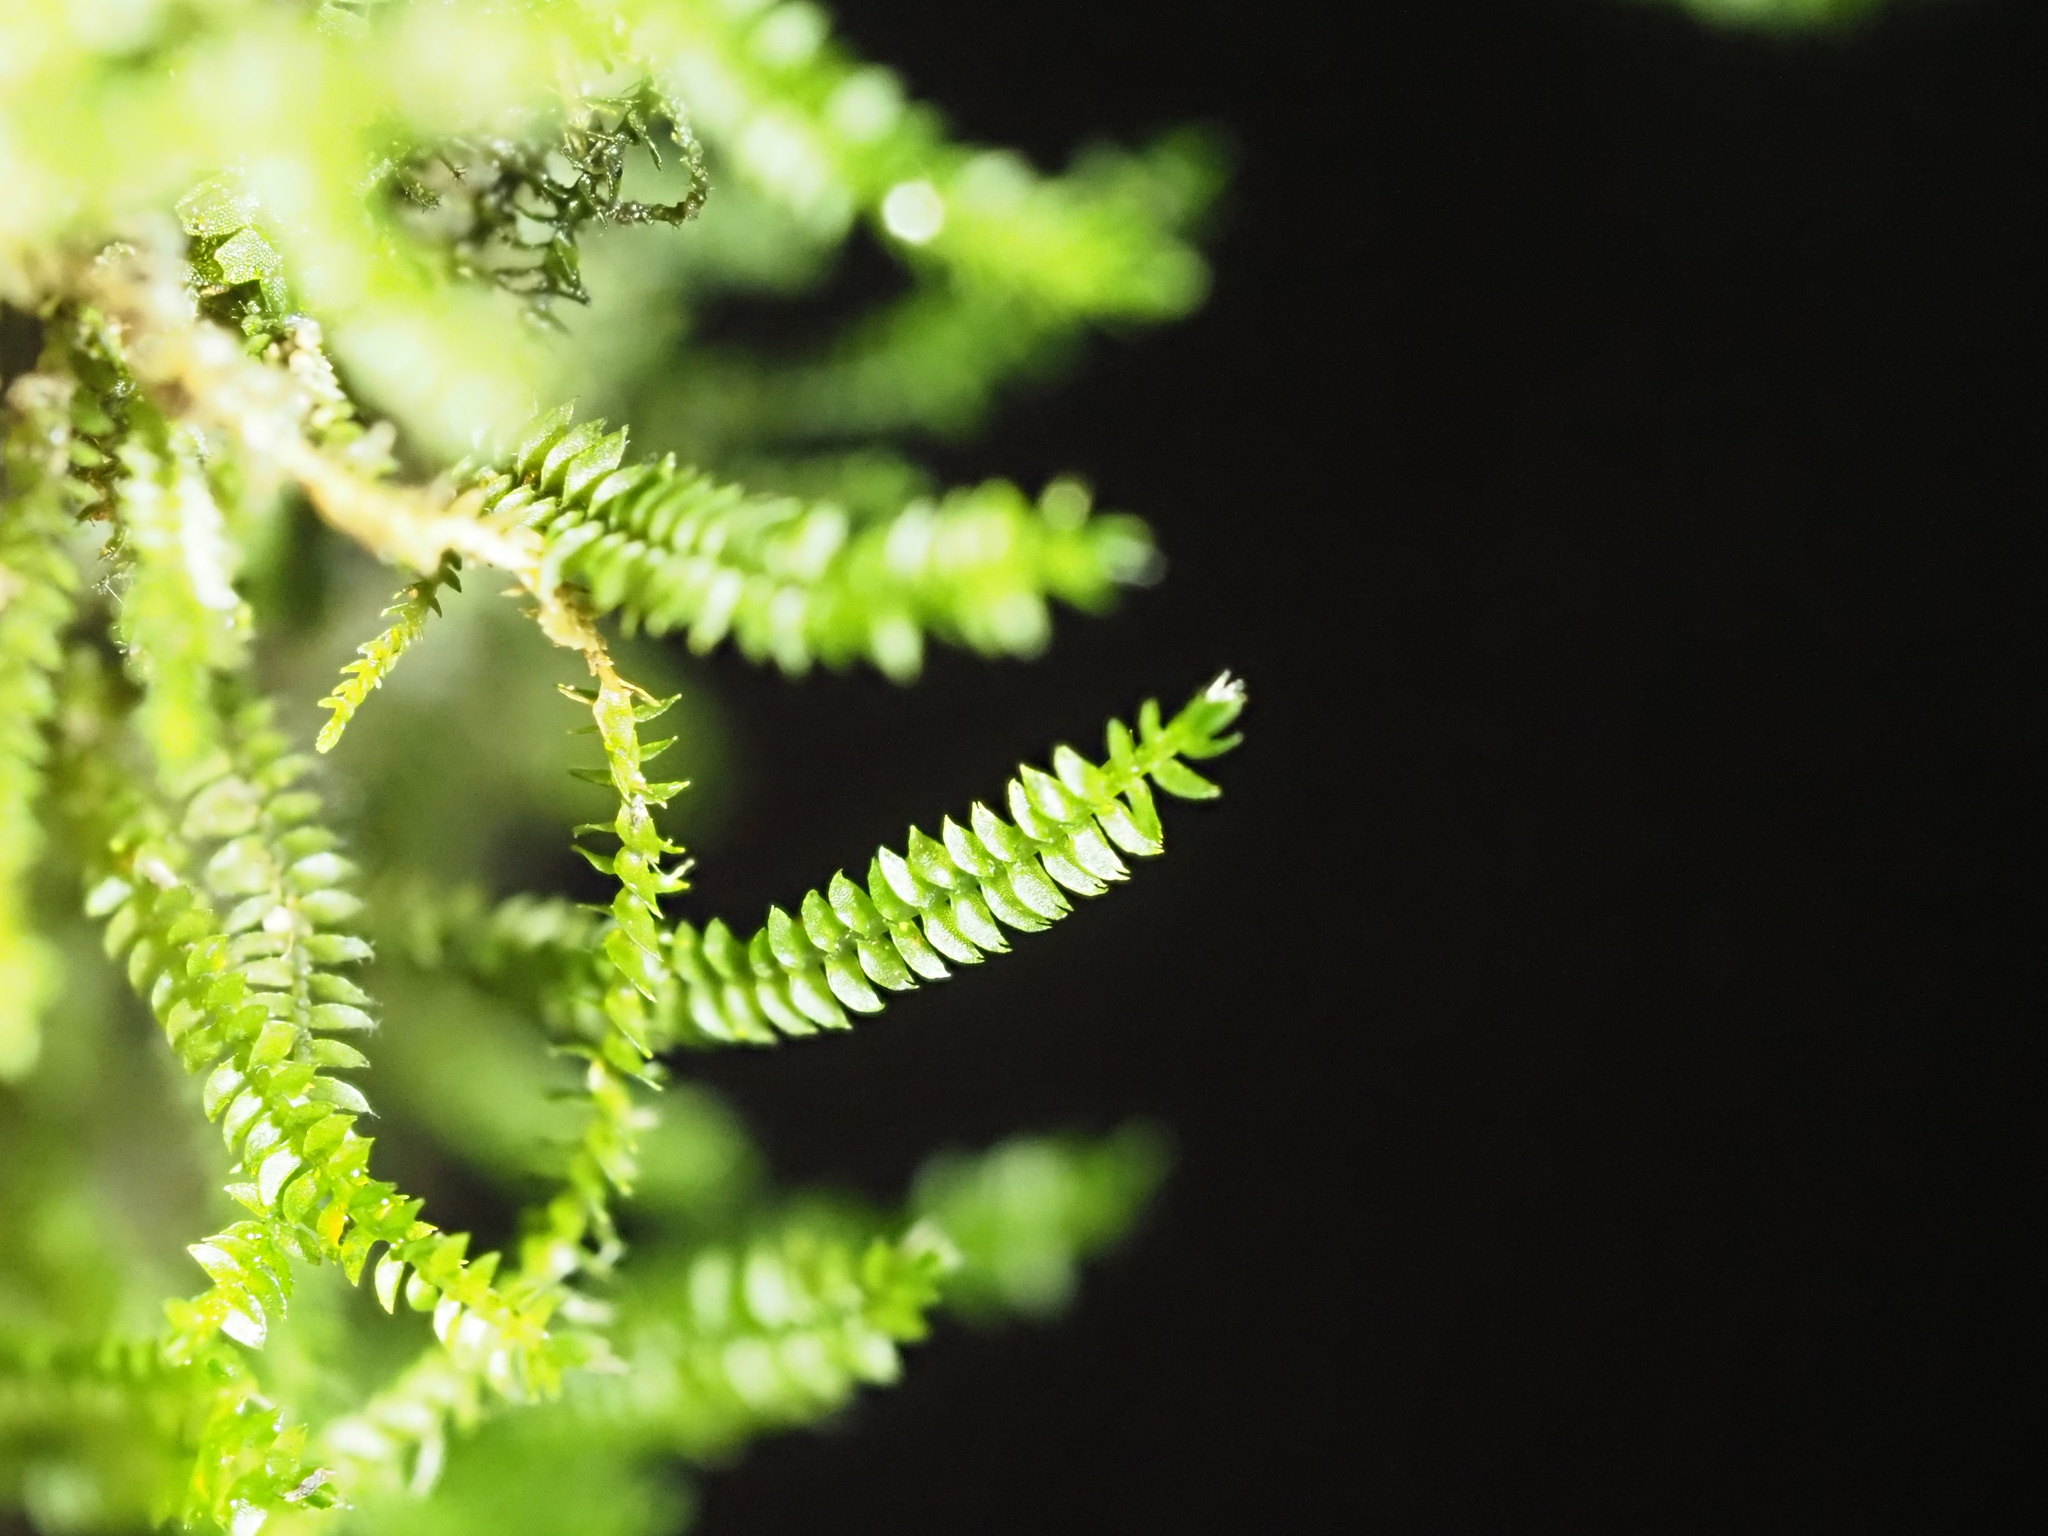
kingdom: Plantae
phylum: Marchantiophyta
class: Jungermanniopsida
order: Jungermanniales
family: Herbertaceae
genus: Herbertus
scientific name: Herbertus gracilis
